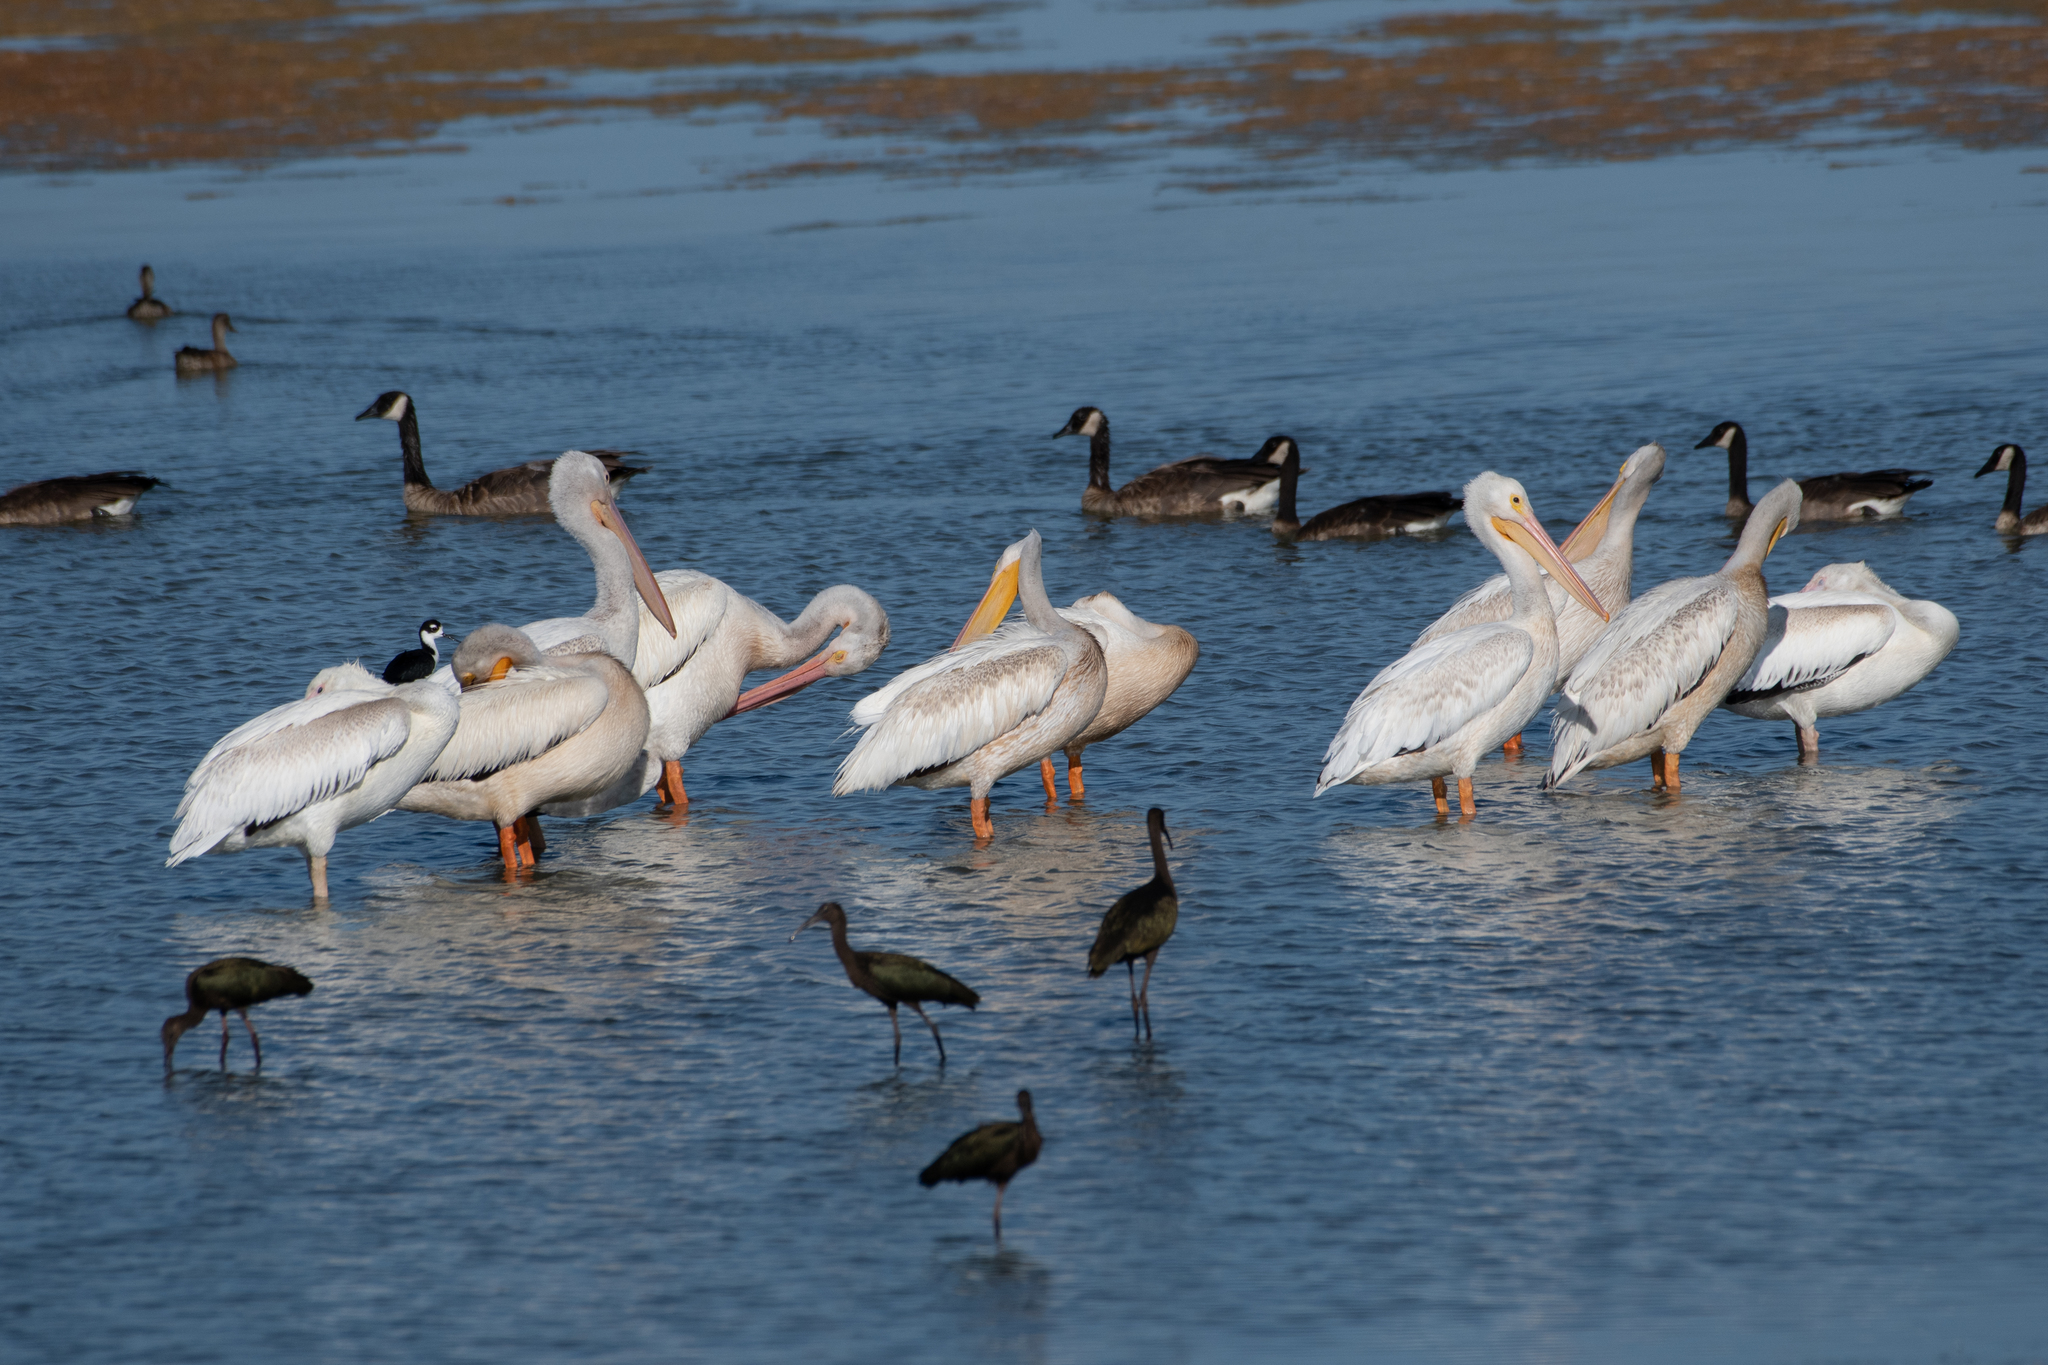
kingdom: Animalia
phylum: Chordata
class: Aves
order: Pelecaniformes
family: Pelecanidae
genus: Pelecanus
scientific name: Pelecanus erythrorhynchos
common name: American white pelican
